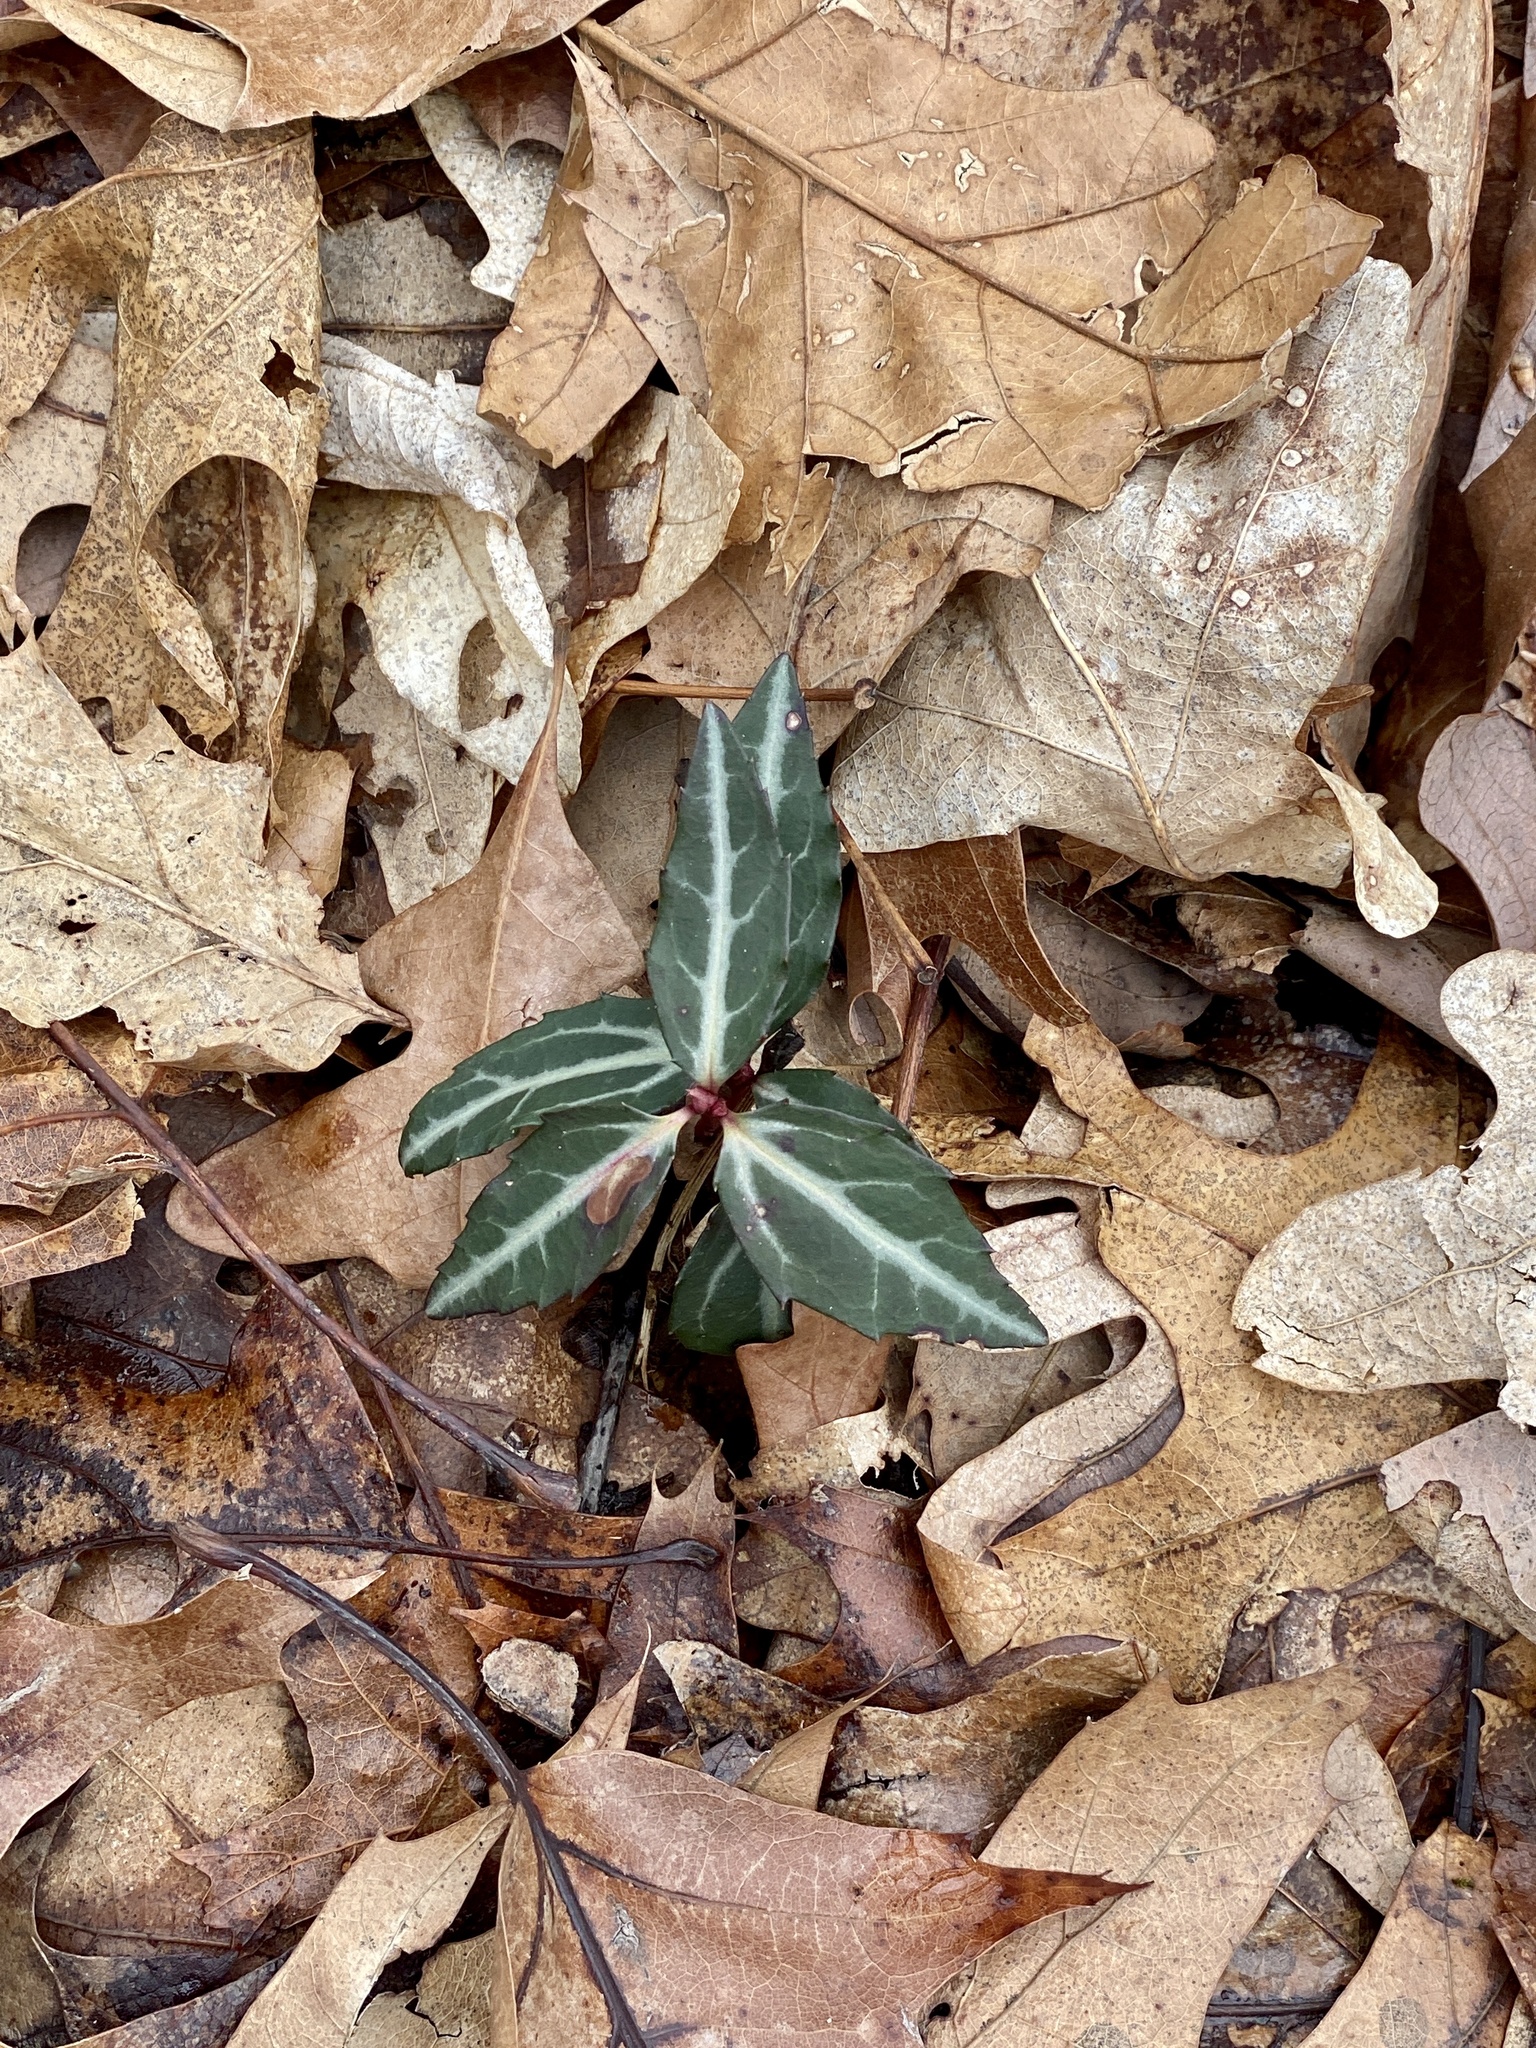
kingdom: Plantae
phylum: Tracheophyta
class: Magnoliopsida
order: Ericales
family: Ericaceae
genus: Chimaphila
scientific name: Chimaphila maculata
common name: Spotted pipsissewa
